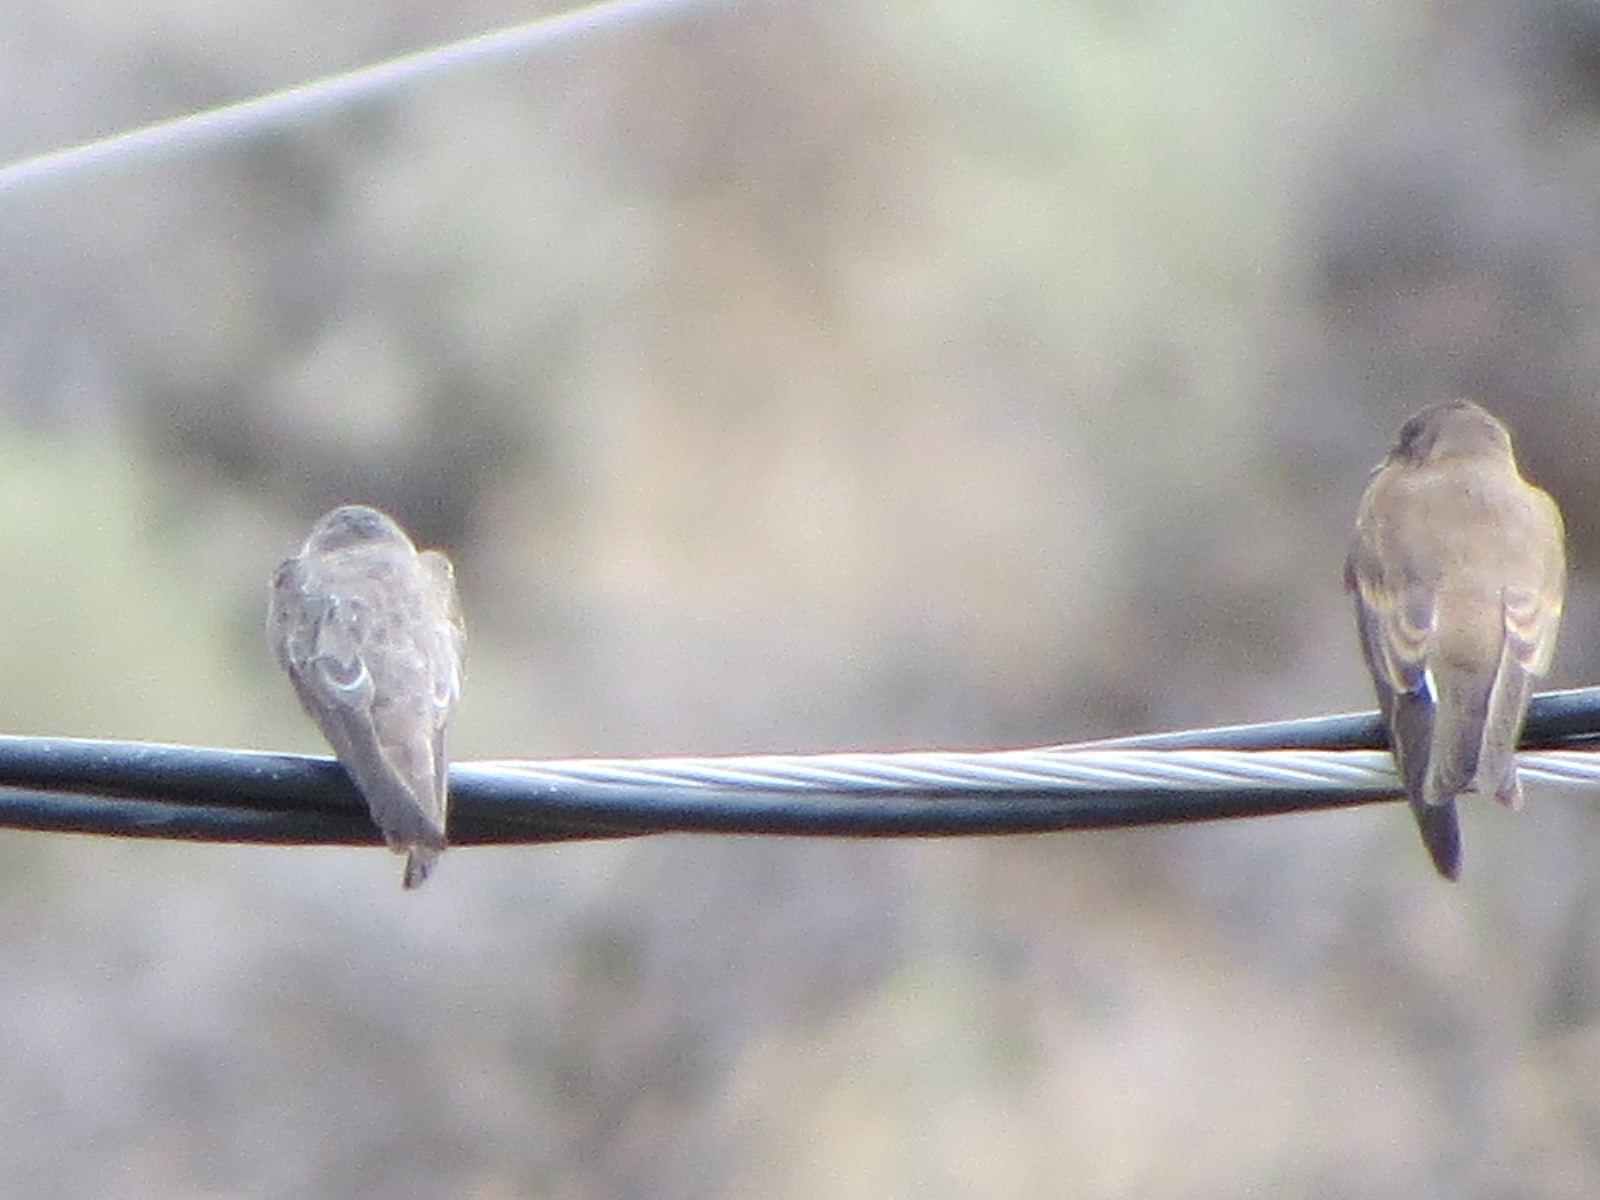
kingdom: Animalia
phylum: Chordata
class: Aves
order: Passeriformes
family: Hirundinidae
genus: Stelgidopteryx
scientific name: Stelgidopteryx serripennis
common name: Northern rough-winged swallow
